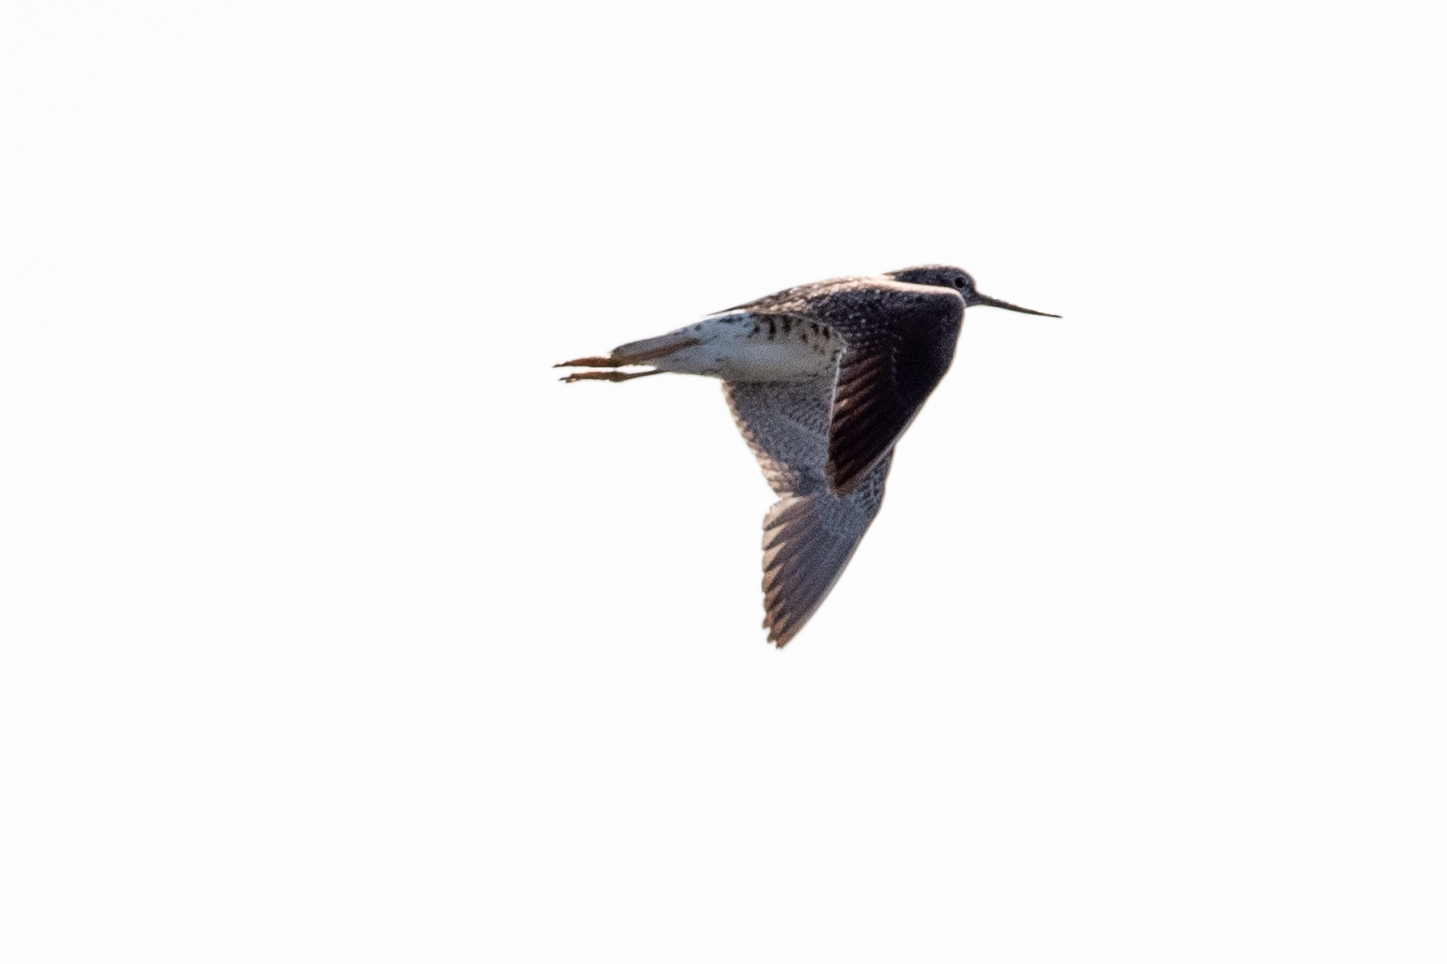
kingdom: Animalia
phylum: Chordata
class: Aves
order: Charadriiformes
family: Scolopacidae
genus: Tringa
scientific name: Tringa melanoleuca
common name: Greater yellowlegs
